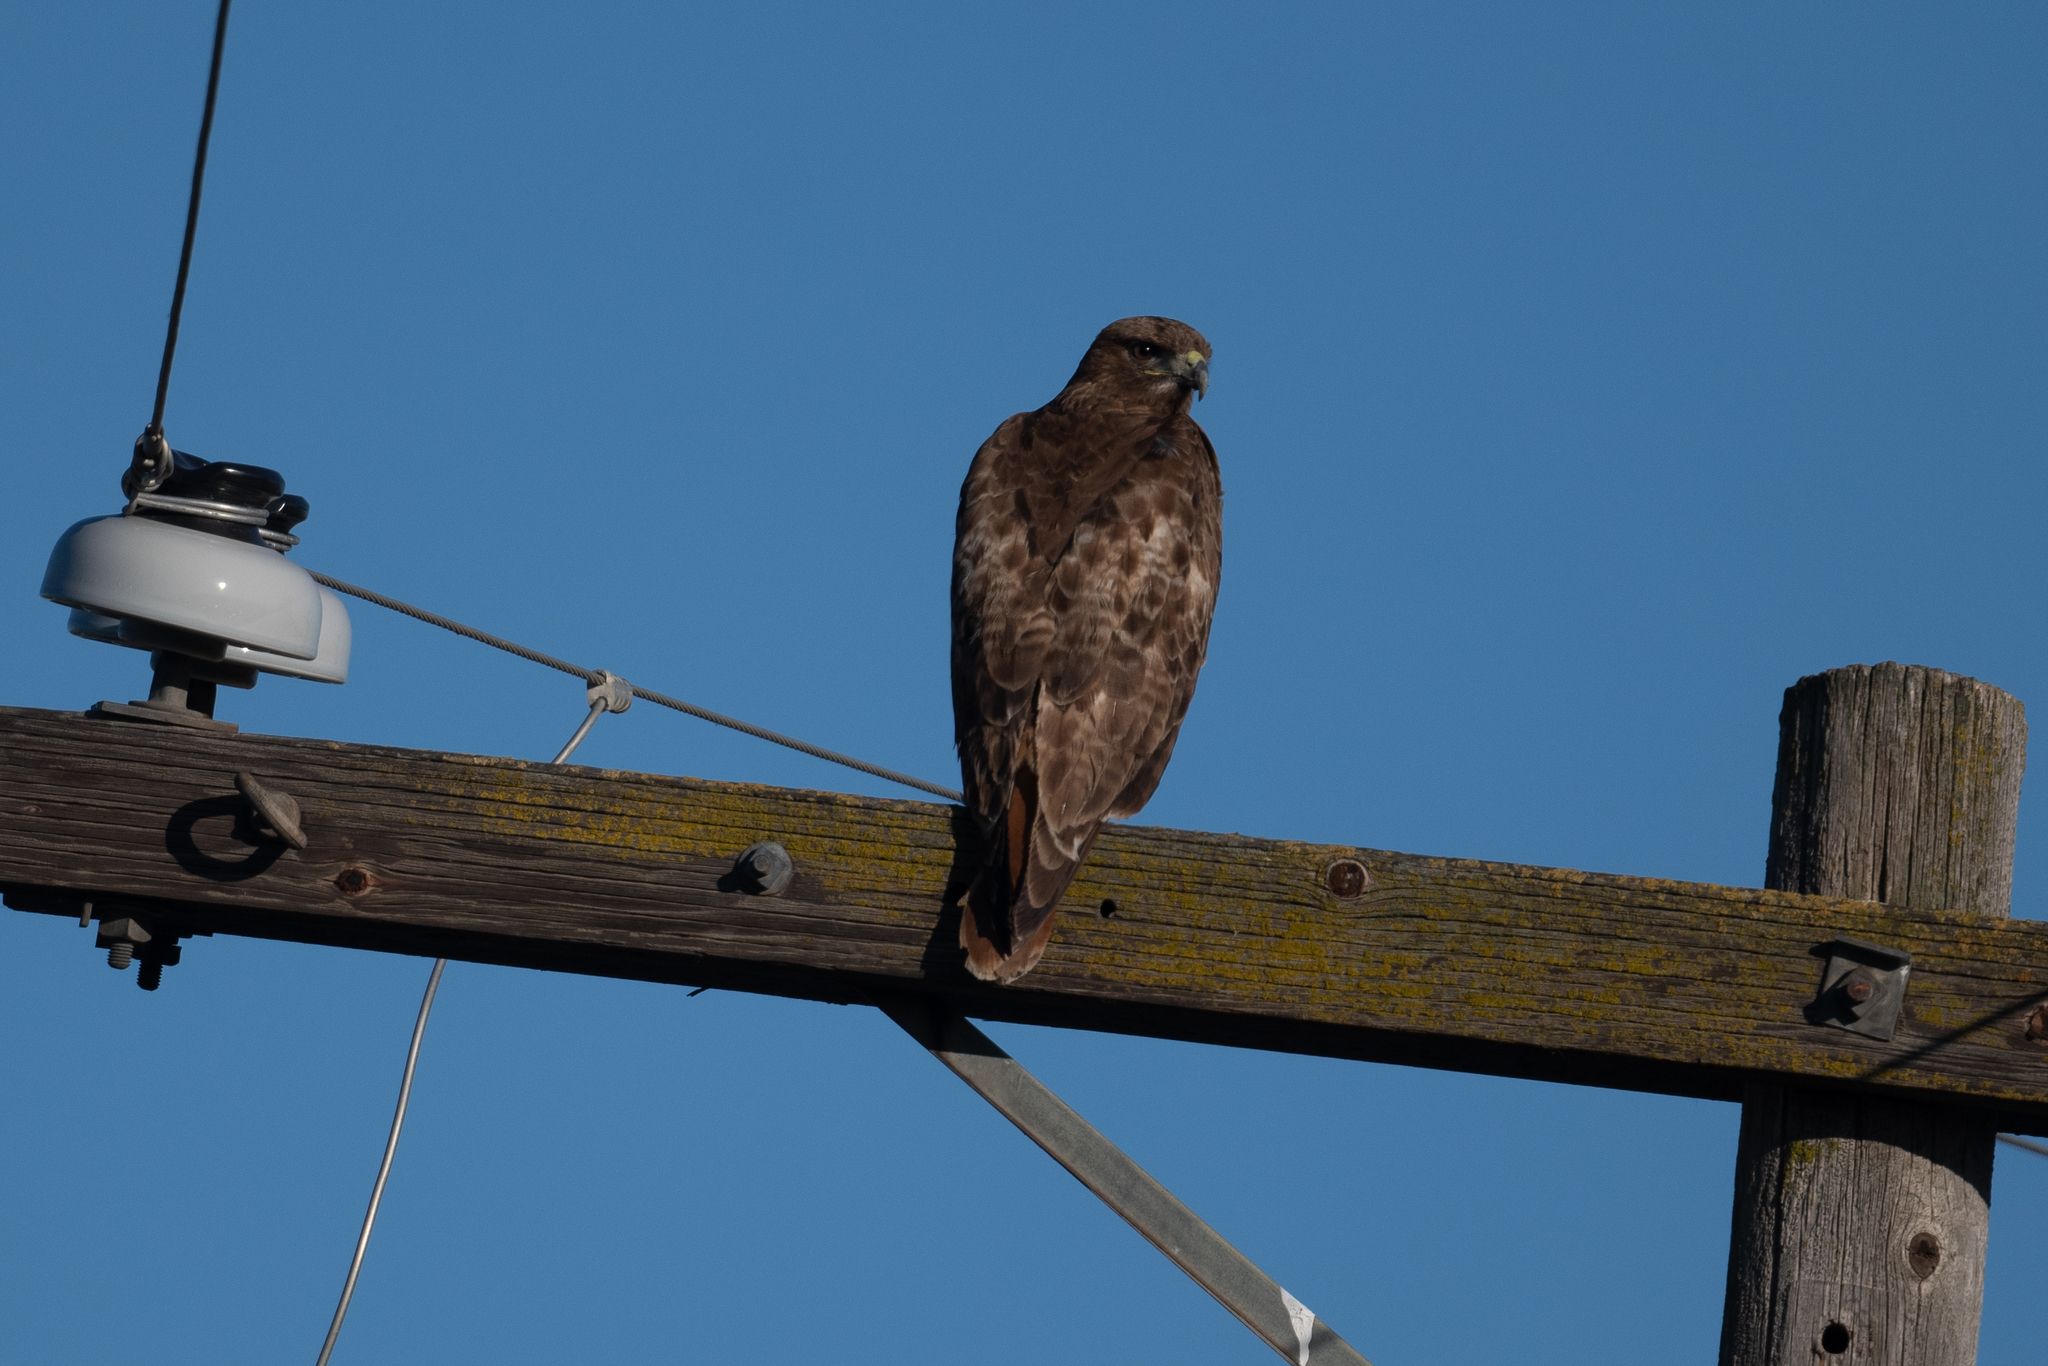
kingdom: Animalia
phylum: Chordata
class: Aves
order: Accipitriformes
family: Accipitridae
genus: Buteo
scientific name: Buteo jamaicensis
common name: Red-tailed hawk
